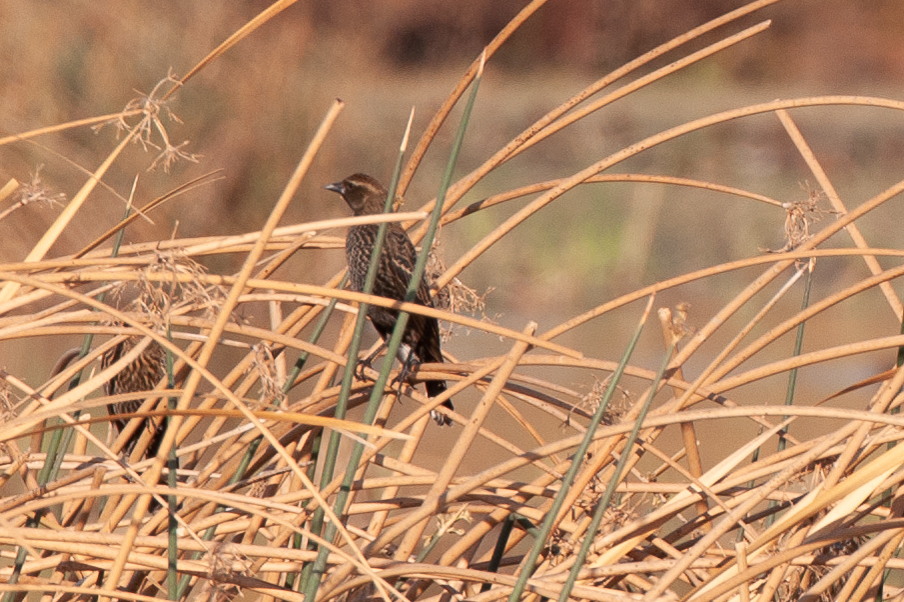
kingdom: Animalia
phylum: Chordata
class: Aves
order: Passeriformes
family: Icteridae
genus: Agelaius
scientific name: Agelaius phoeniceus
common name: Red-winged blackbird
